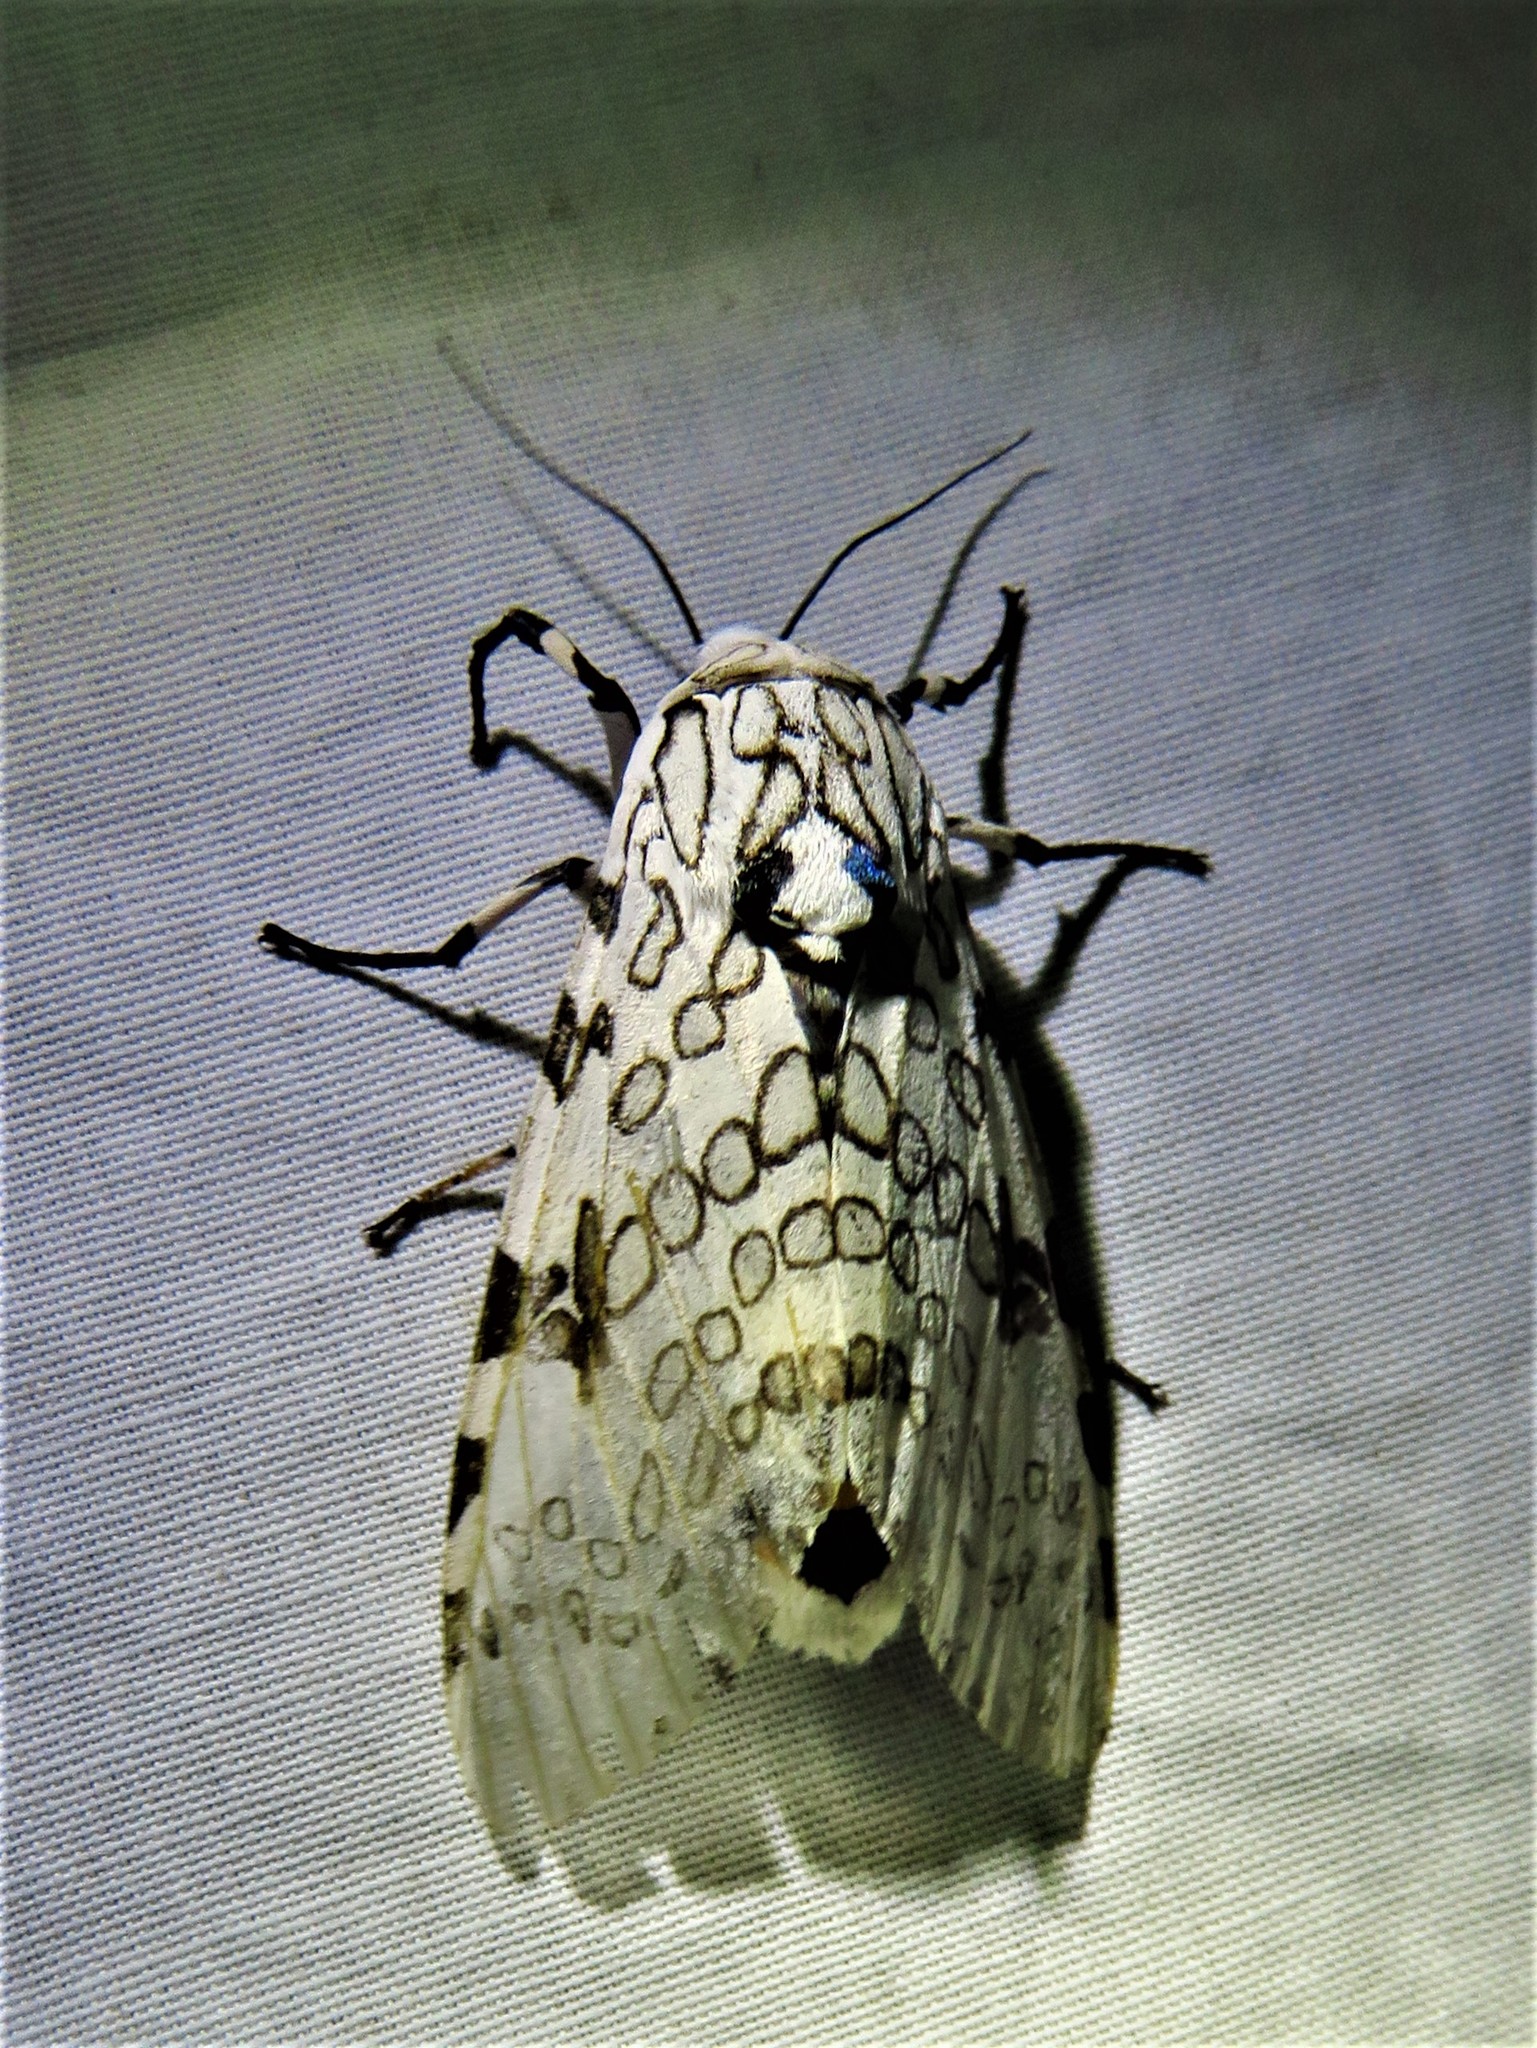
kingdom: Animalia
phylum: Arthropoda
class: Insecta
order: Lepidoptera
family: Erebidae
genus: Hypercompe
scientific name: Hypercompe scribonia
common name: Giant leopard moth
